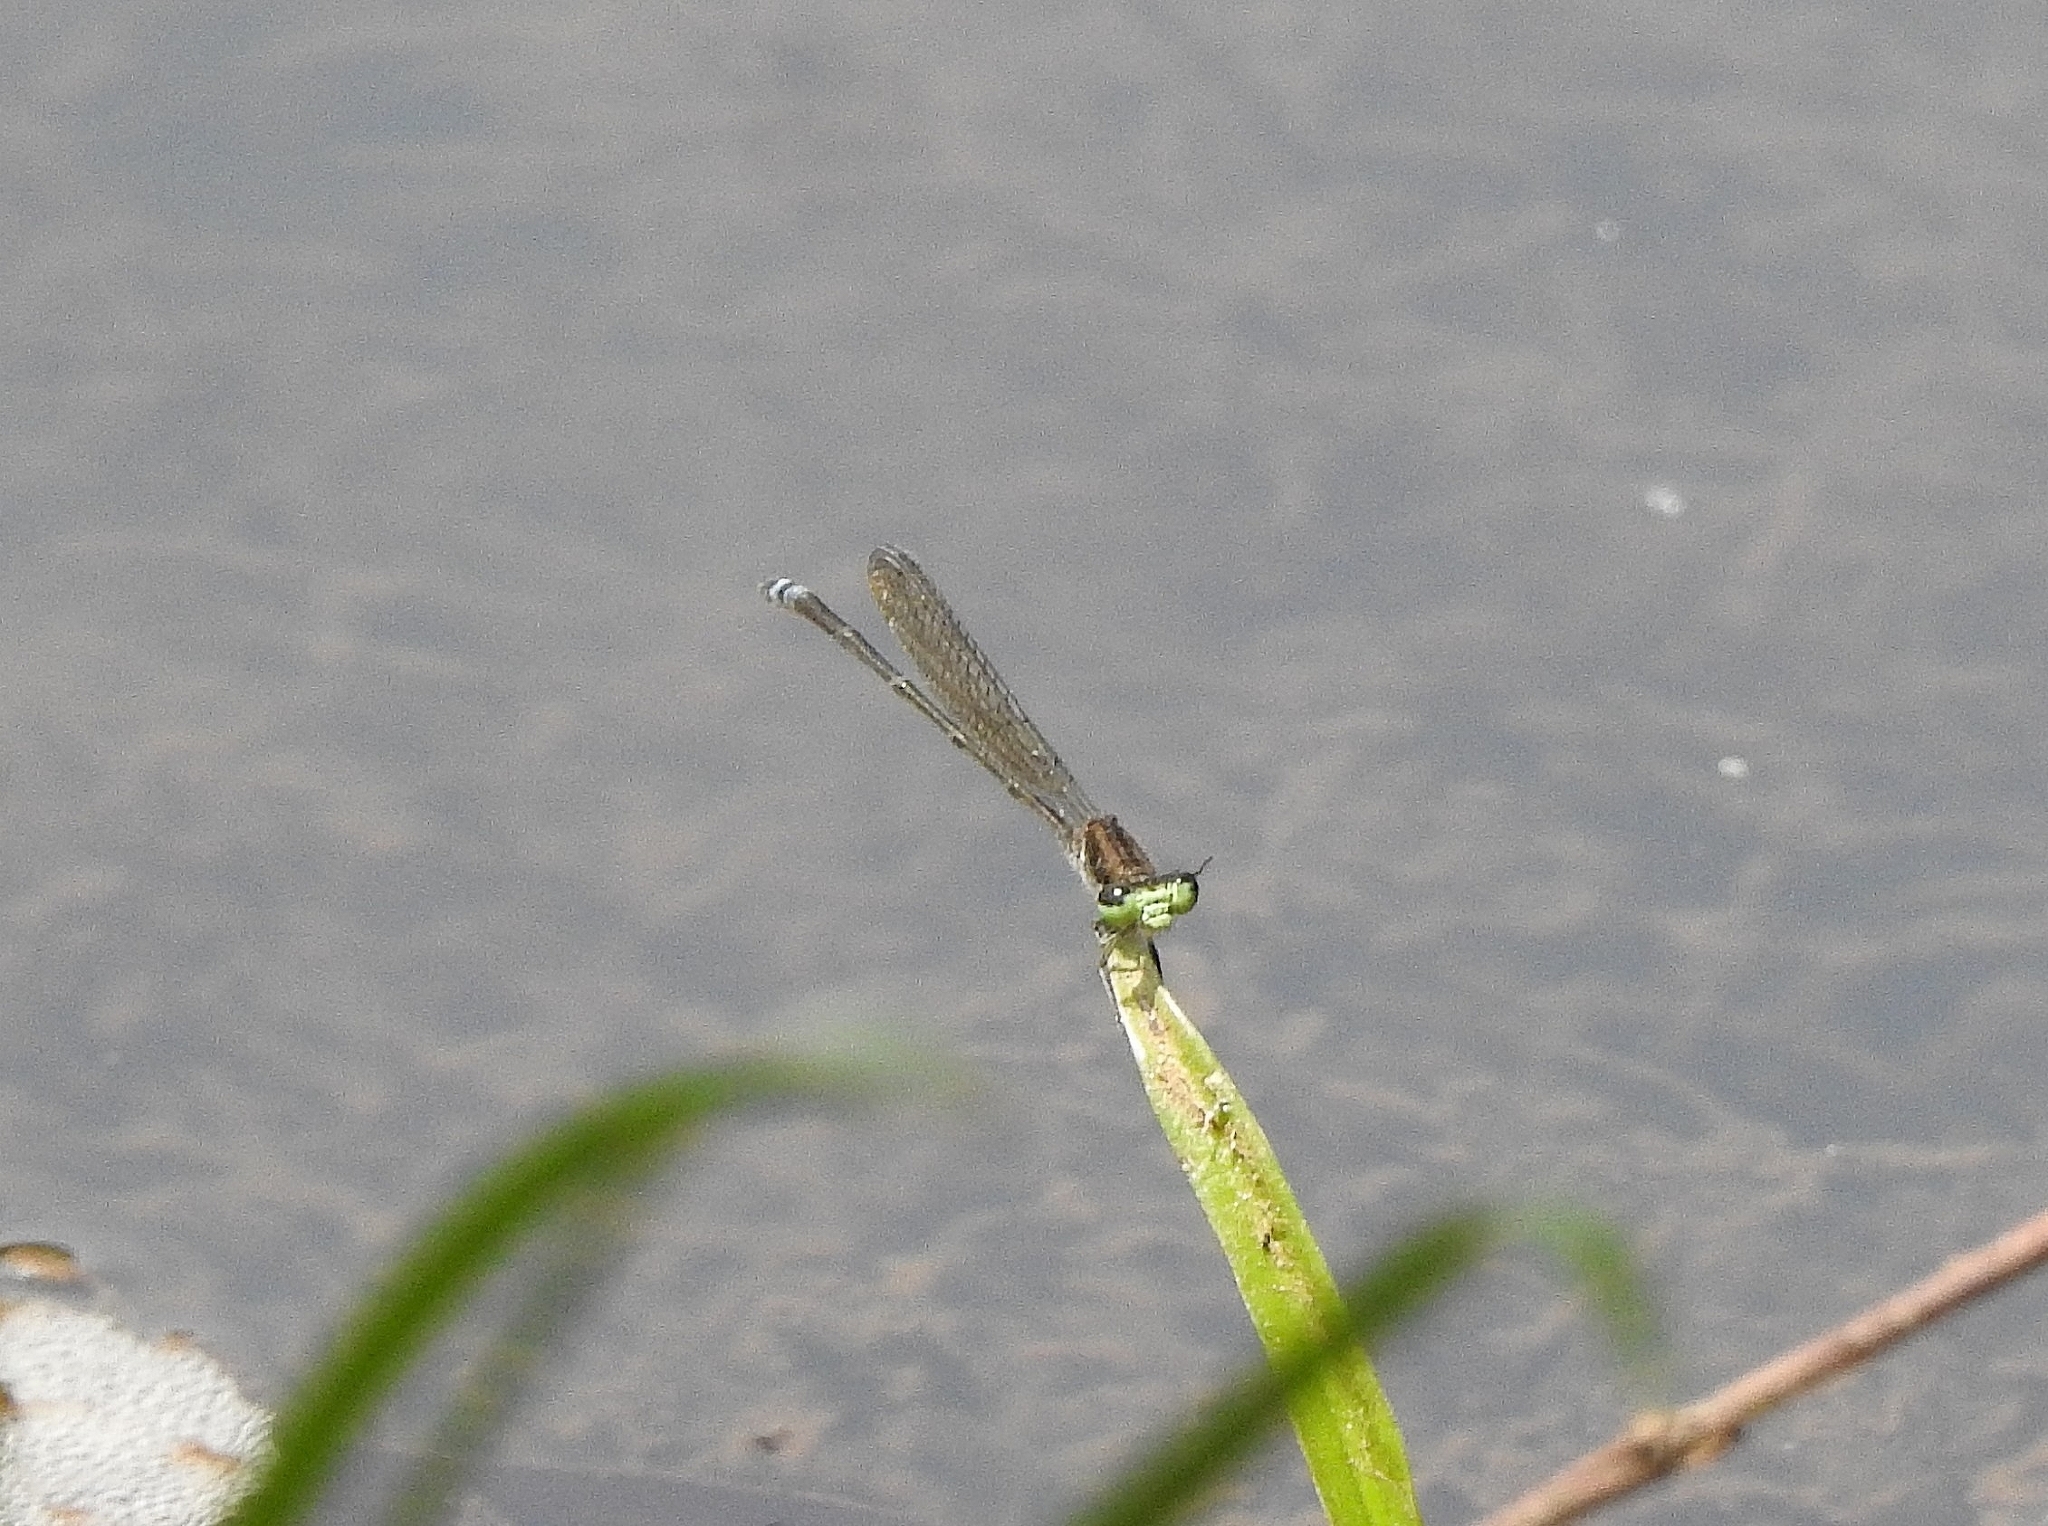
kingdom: Animalia
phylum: Arthropoda
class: Insecta
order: Odonata
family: Coenagrionidae
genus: Pseudagrion
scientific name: Pseudagrion indicum
